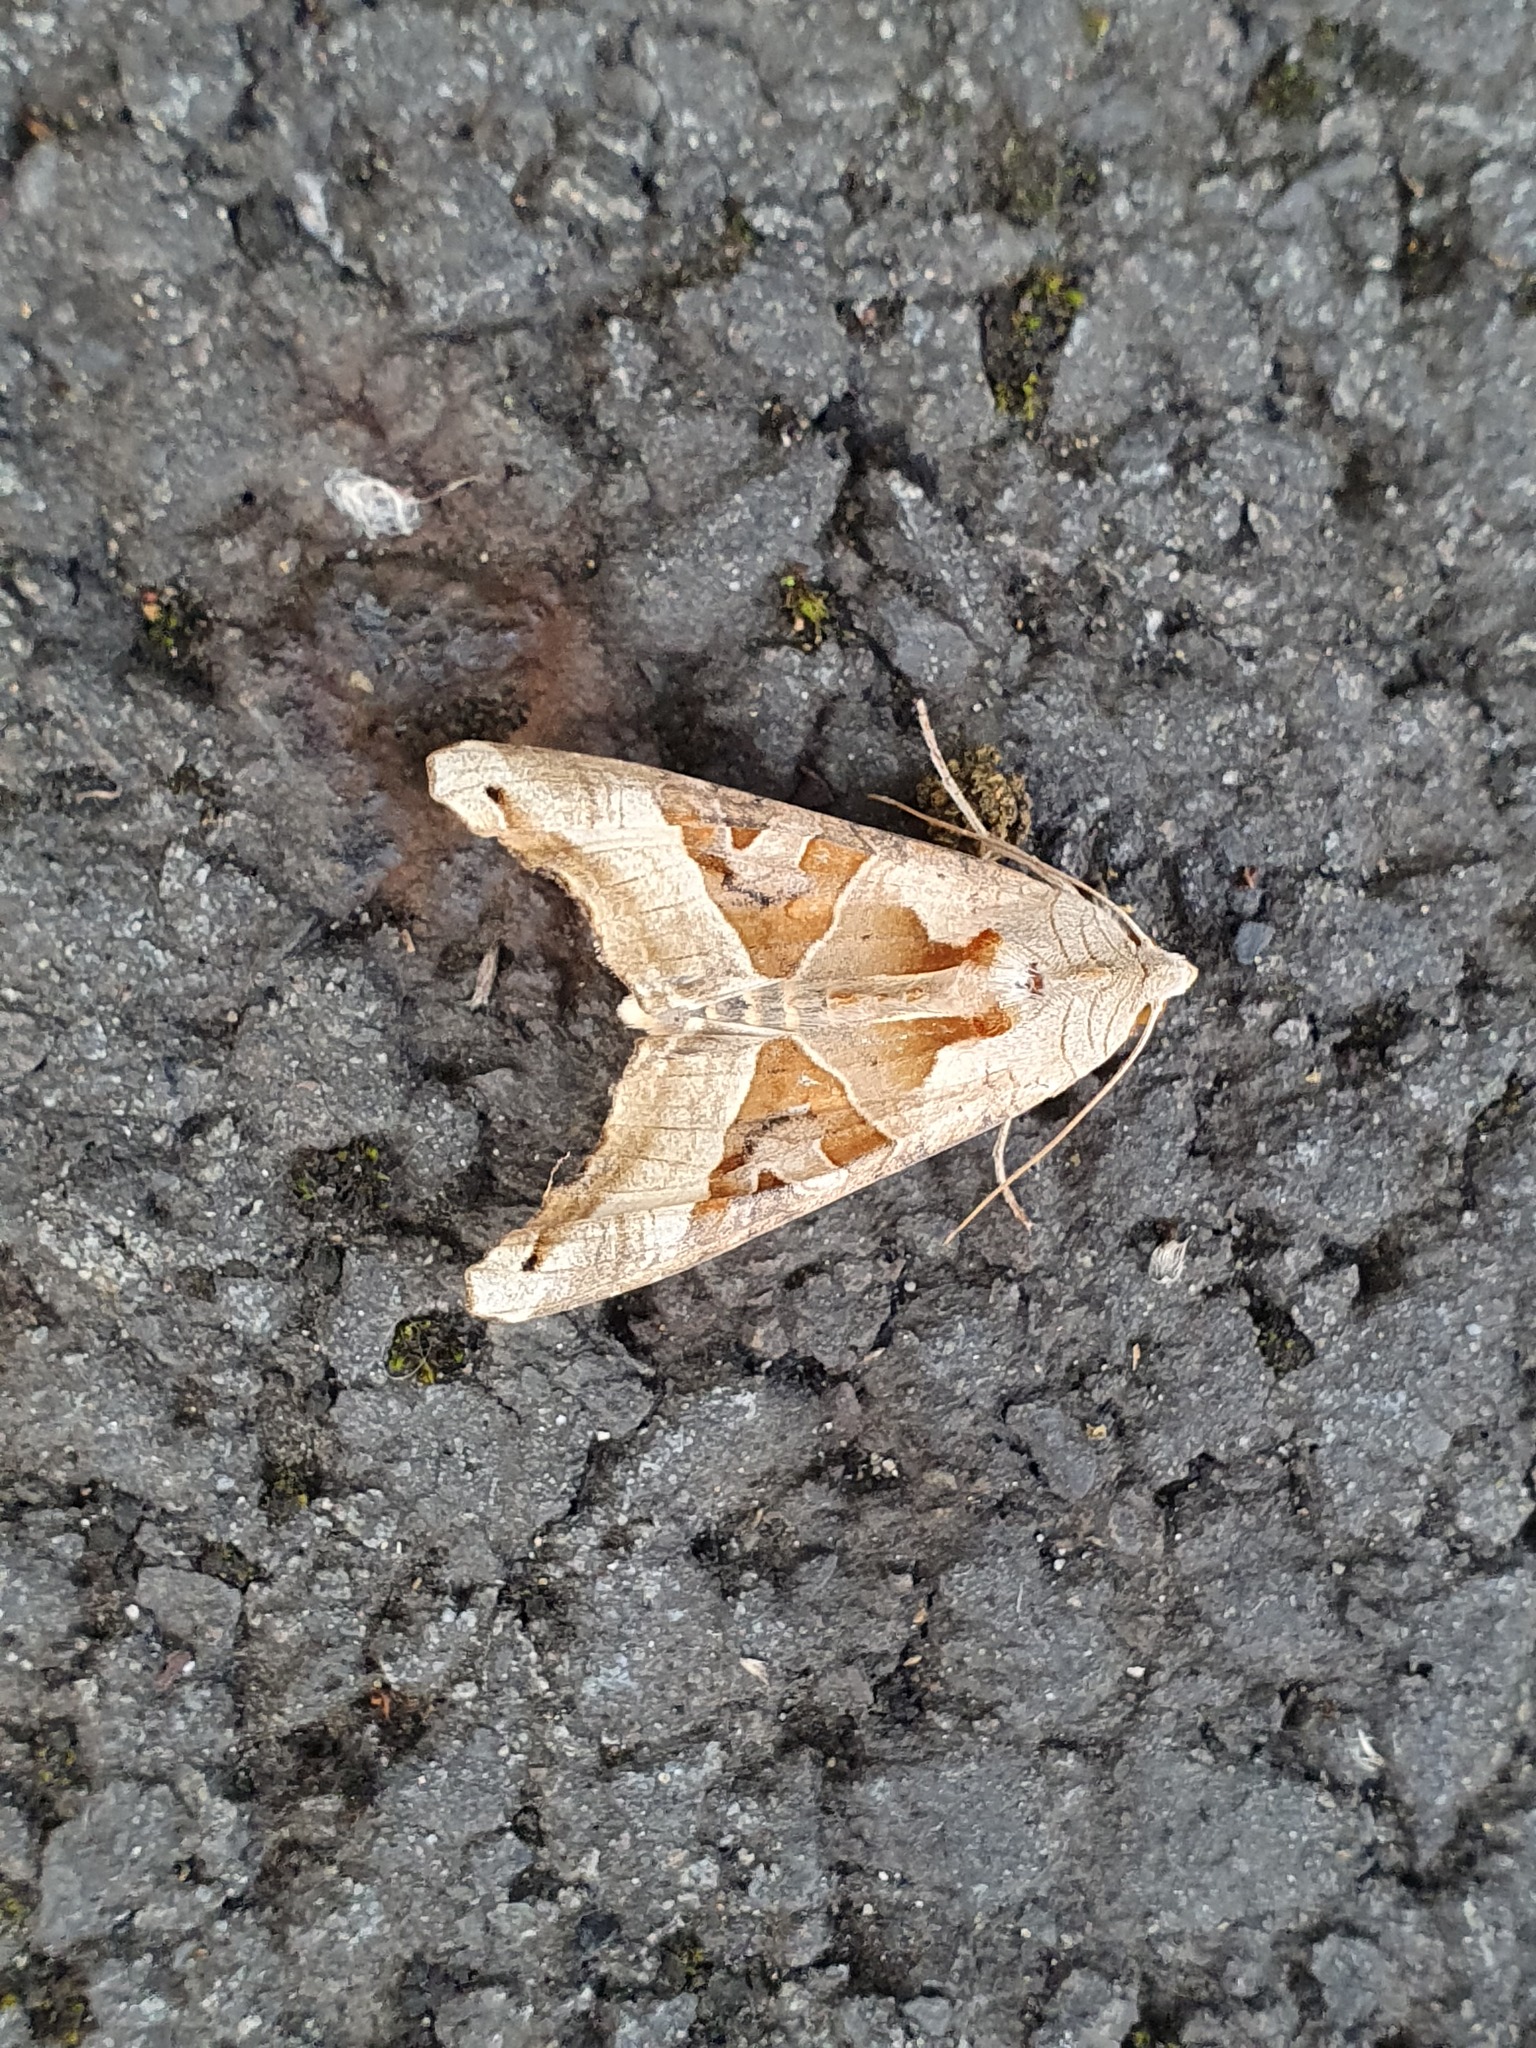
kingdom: Animalia
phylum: Arthropoda
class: Insecta
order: Lepidoptera
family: Noctuidae
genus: Phlogophora
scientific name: Phlogophora meticulosa
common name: Angle shades
